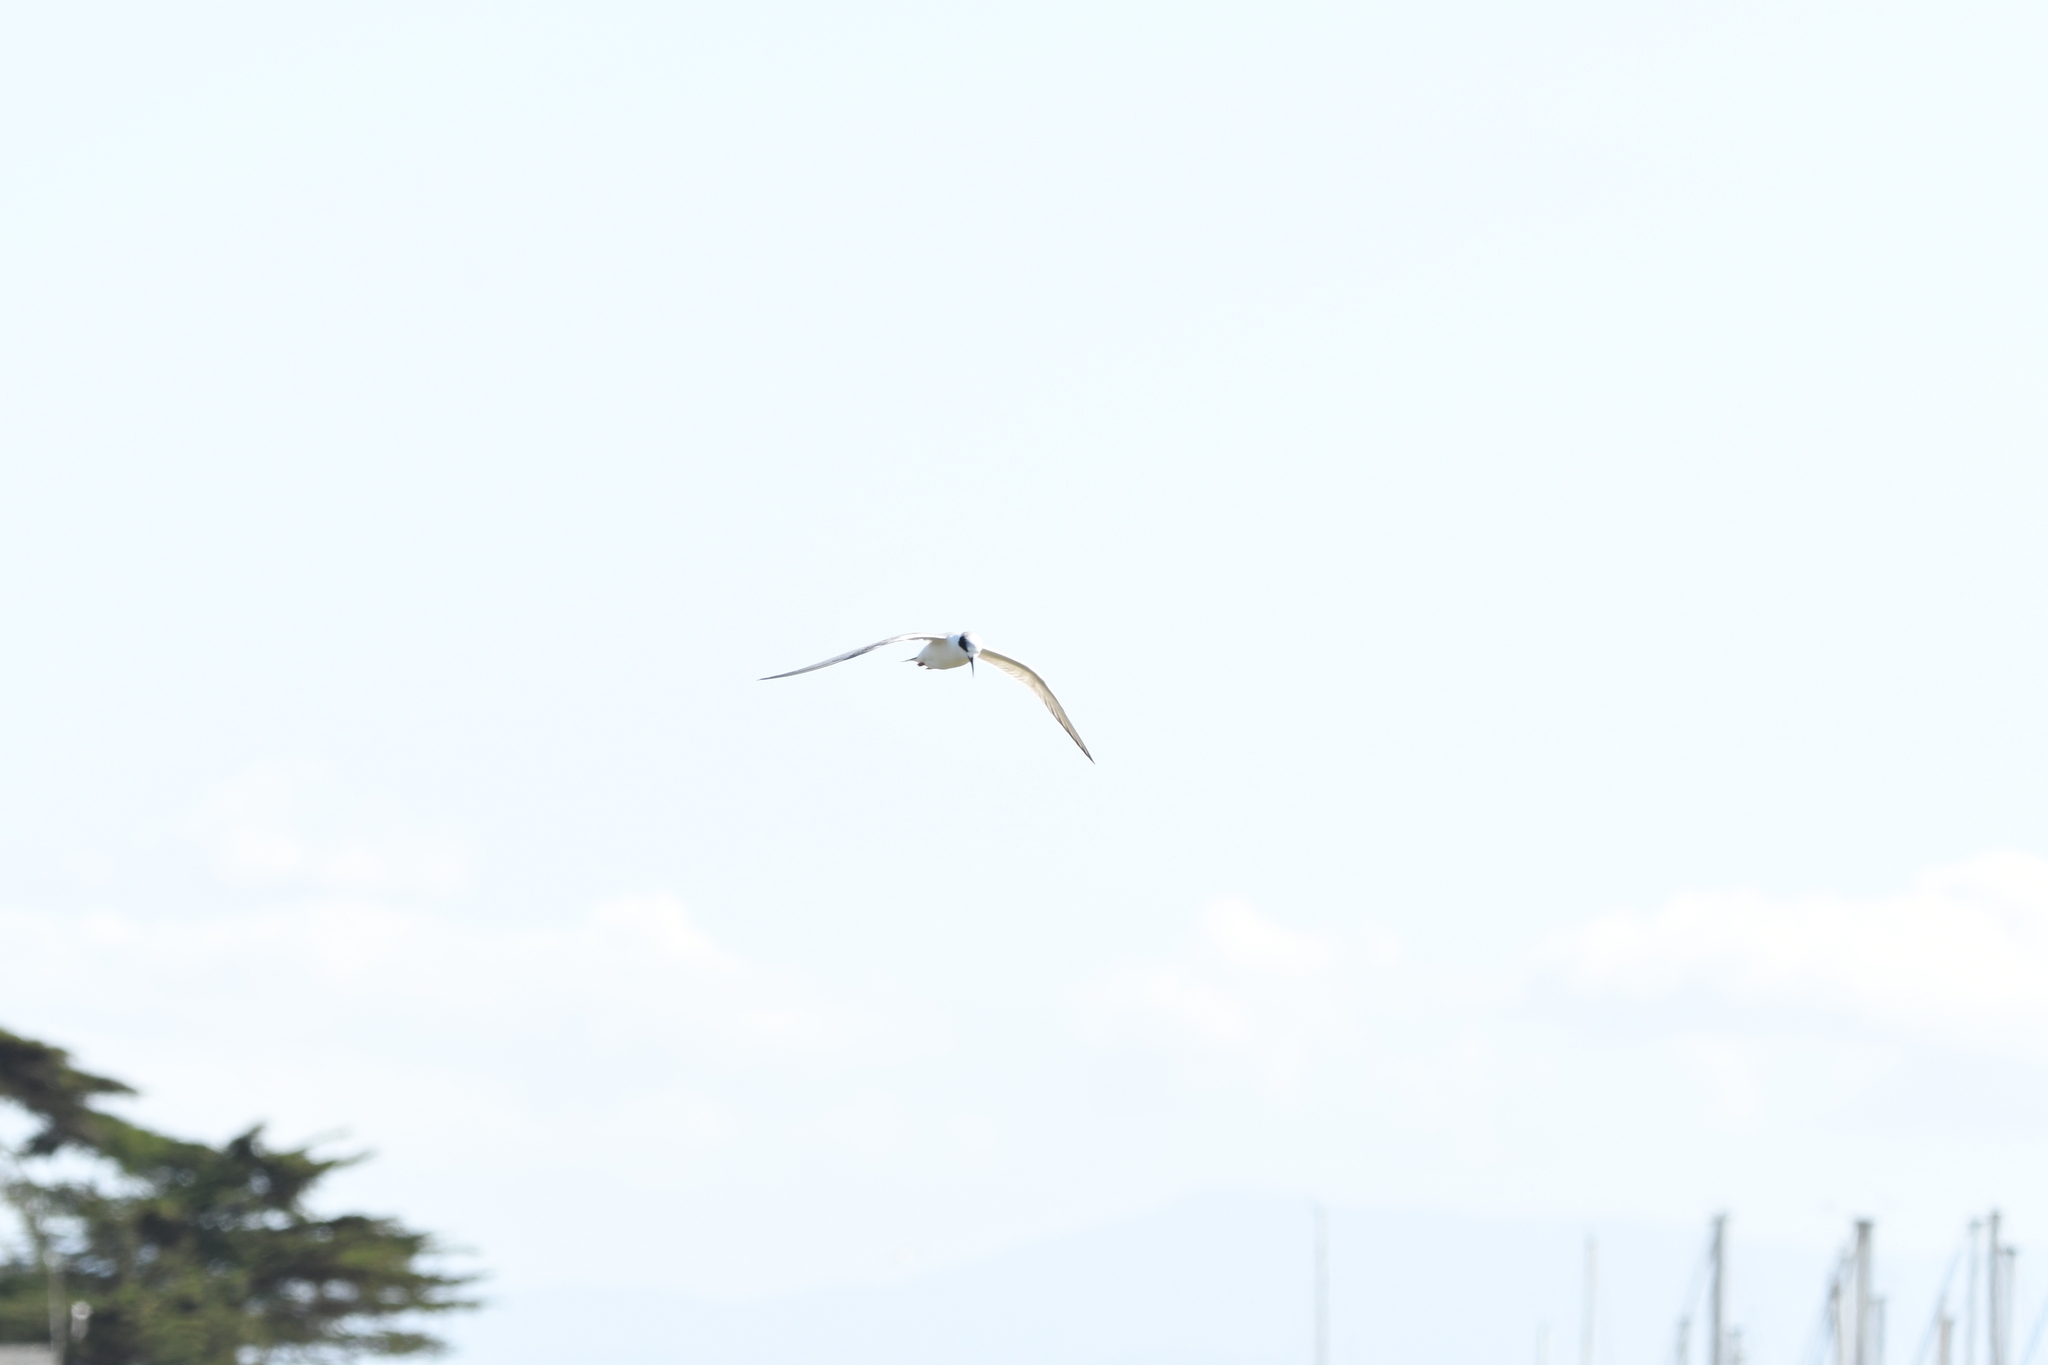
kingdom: Animalia
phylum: Chordata
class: Aves
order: Charadriiformes
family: Laridae
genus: Sterna
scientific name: Sterna forsteri
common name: Forster's tern
